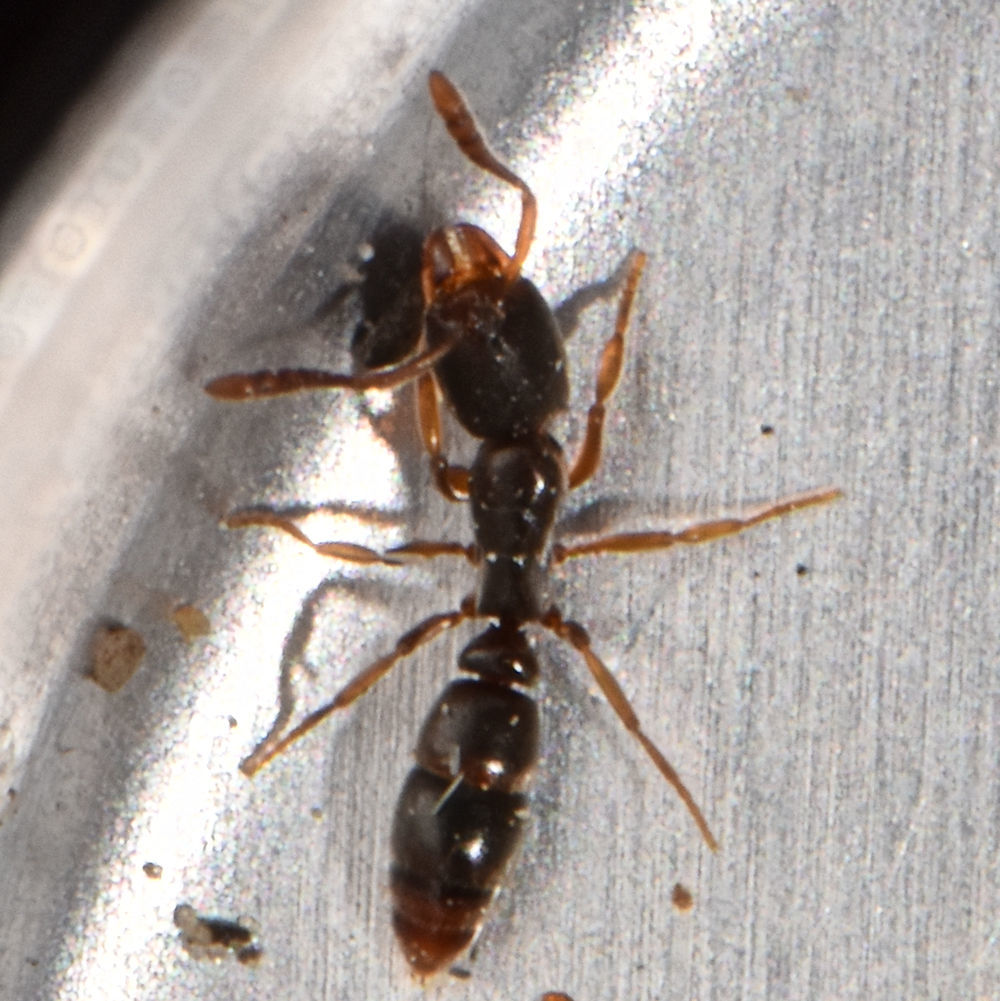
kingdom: Animalia
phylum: Arthropoda
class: Insecta
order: Hymenoptera
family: Formicidae
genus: Ponera
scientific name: Ponera pennsylvanica
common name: Pennsylvania ponera
